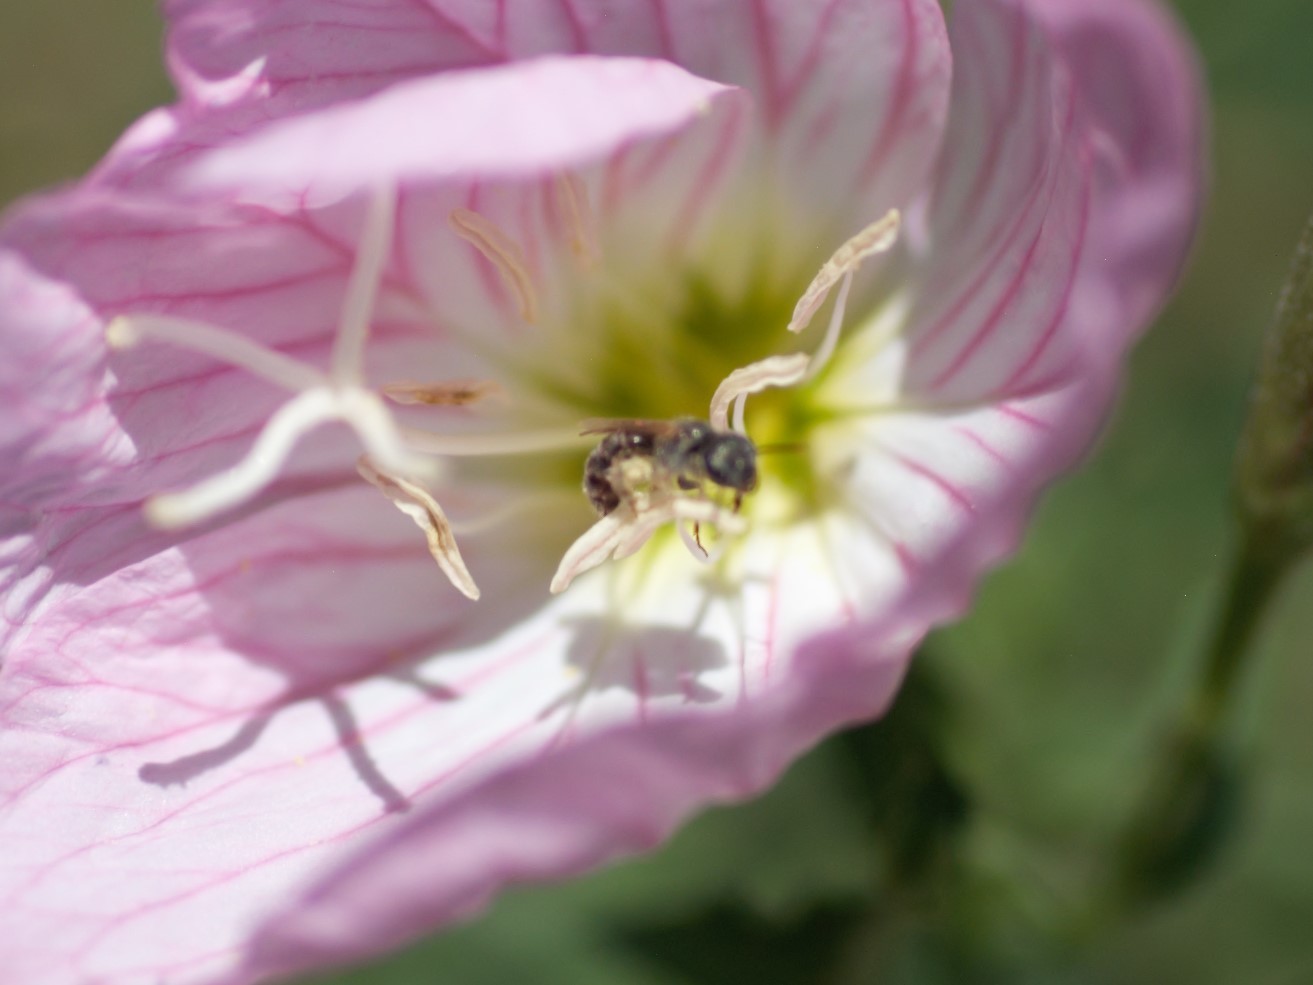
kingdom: Animalia
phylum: Arthropoda
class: Insecta
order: Hymenoptera
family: Halictidae
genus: Halictus
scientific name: Halictus tripartitus
